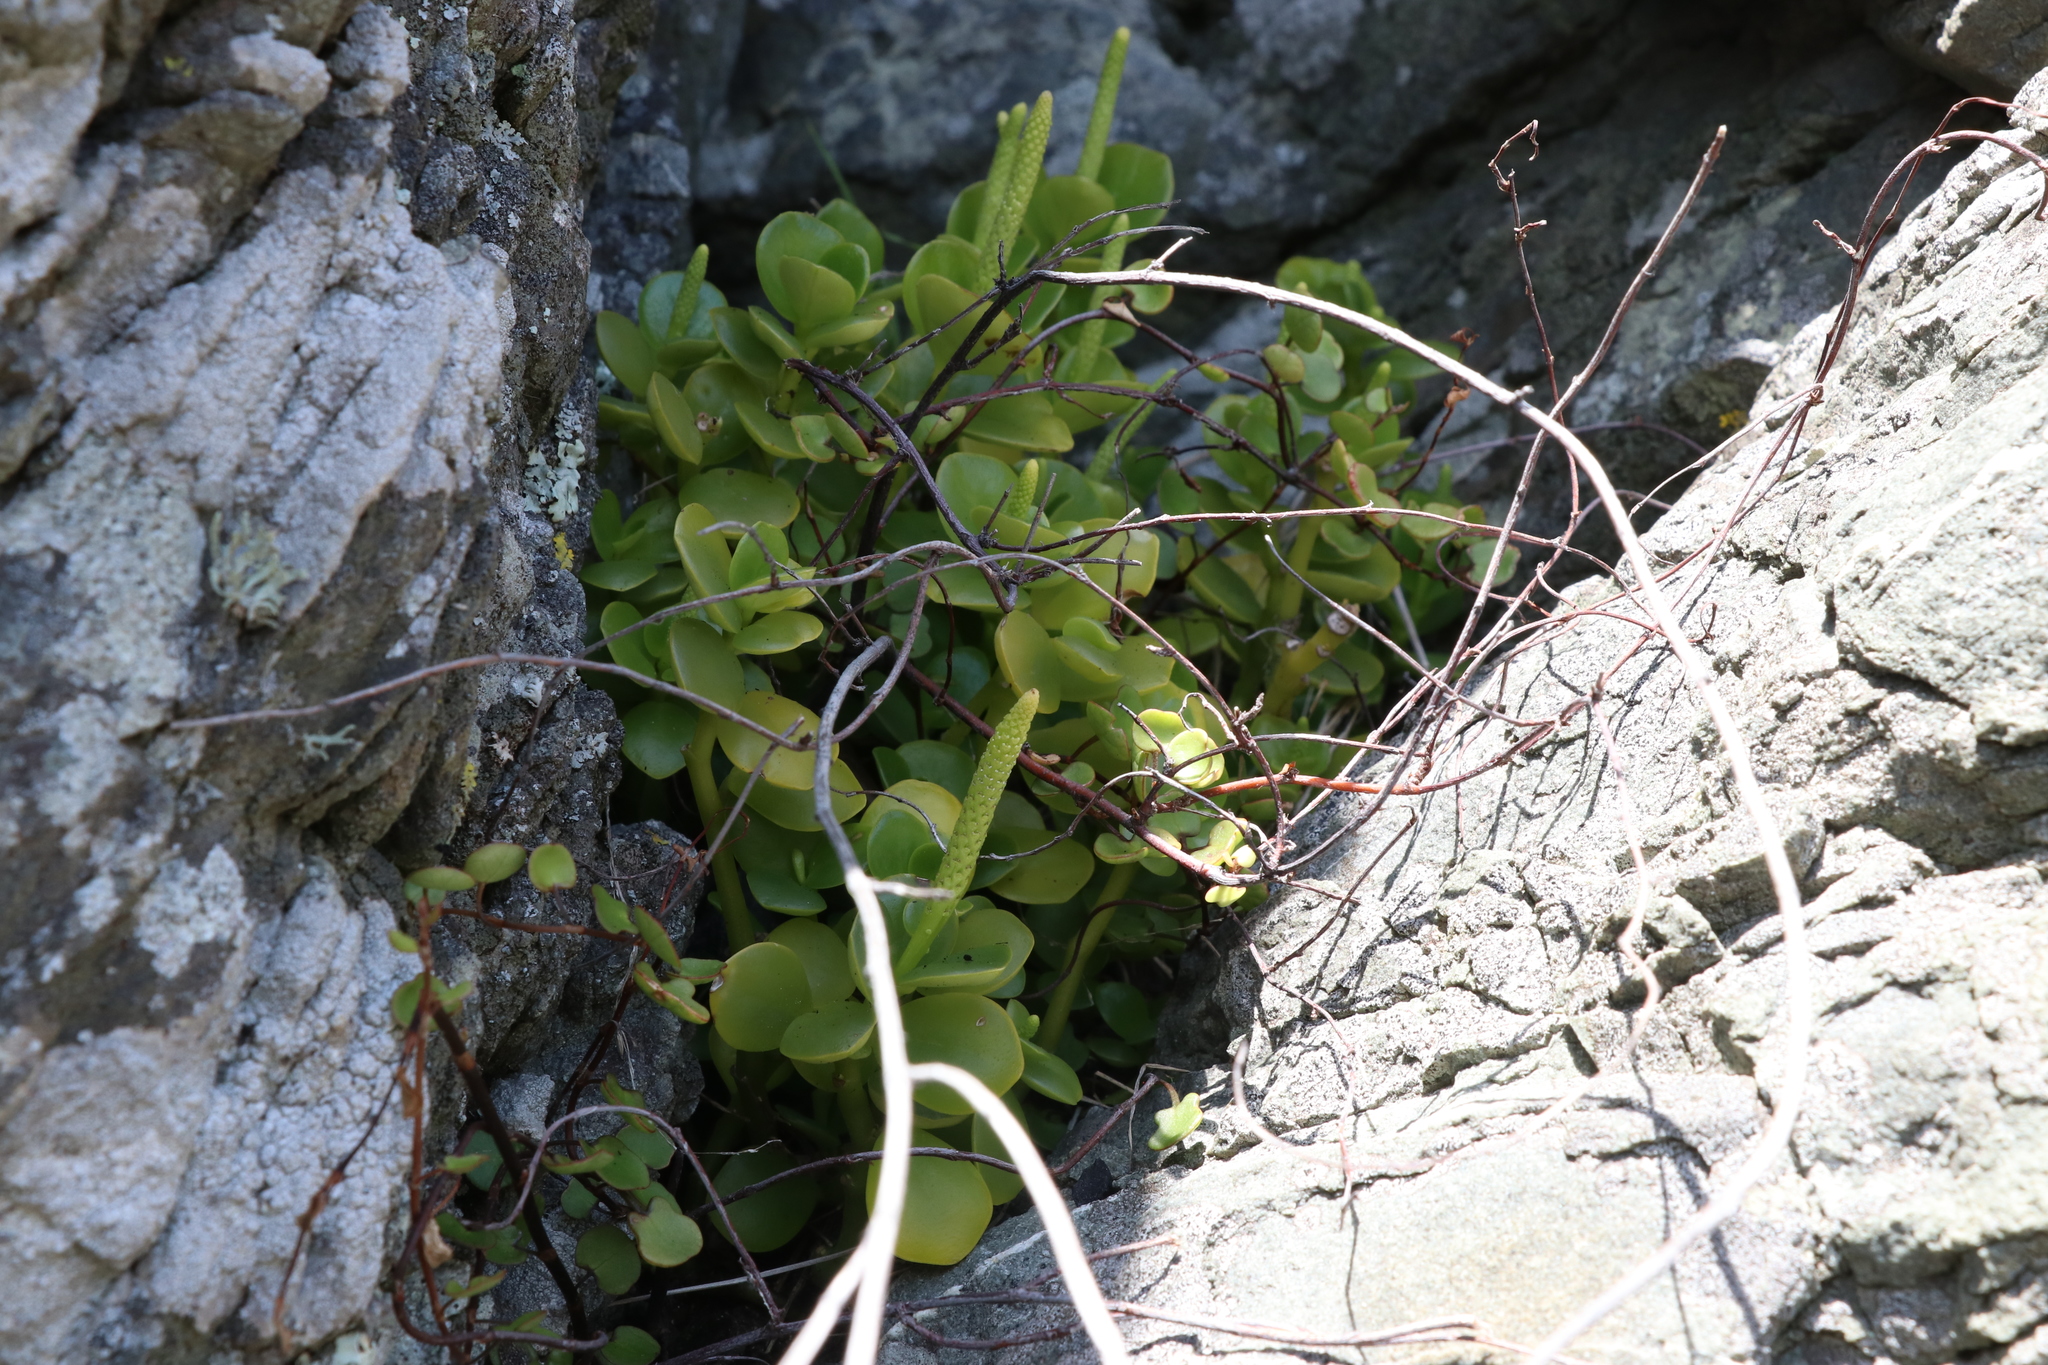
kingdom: Plantae
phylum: Tracheophyta
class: Magnoliopsida
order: Piperales
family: Piperaceae
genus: Peperomia
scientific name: Peperomia urvilleana
